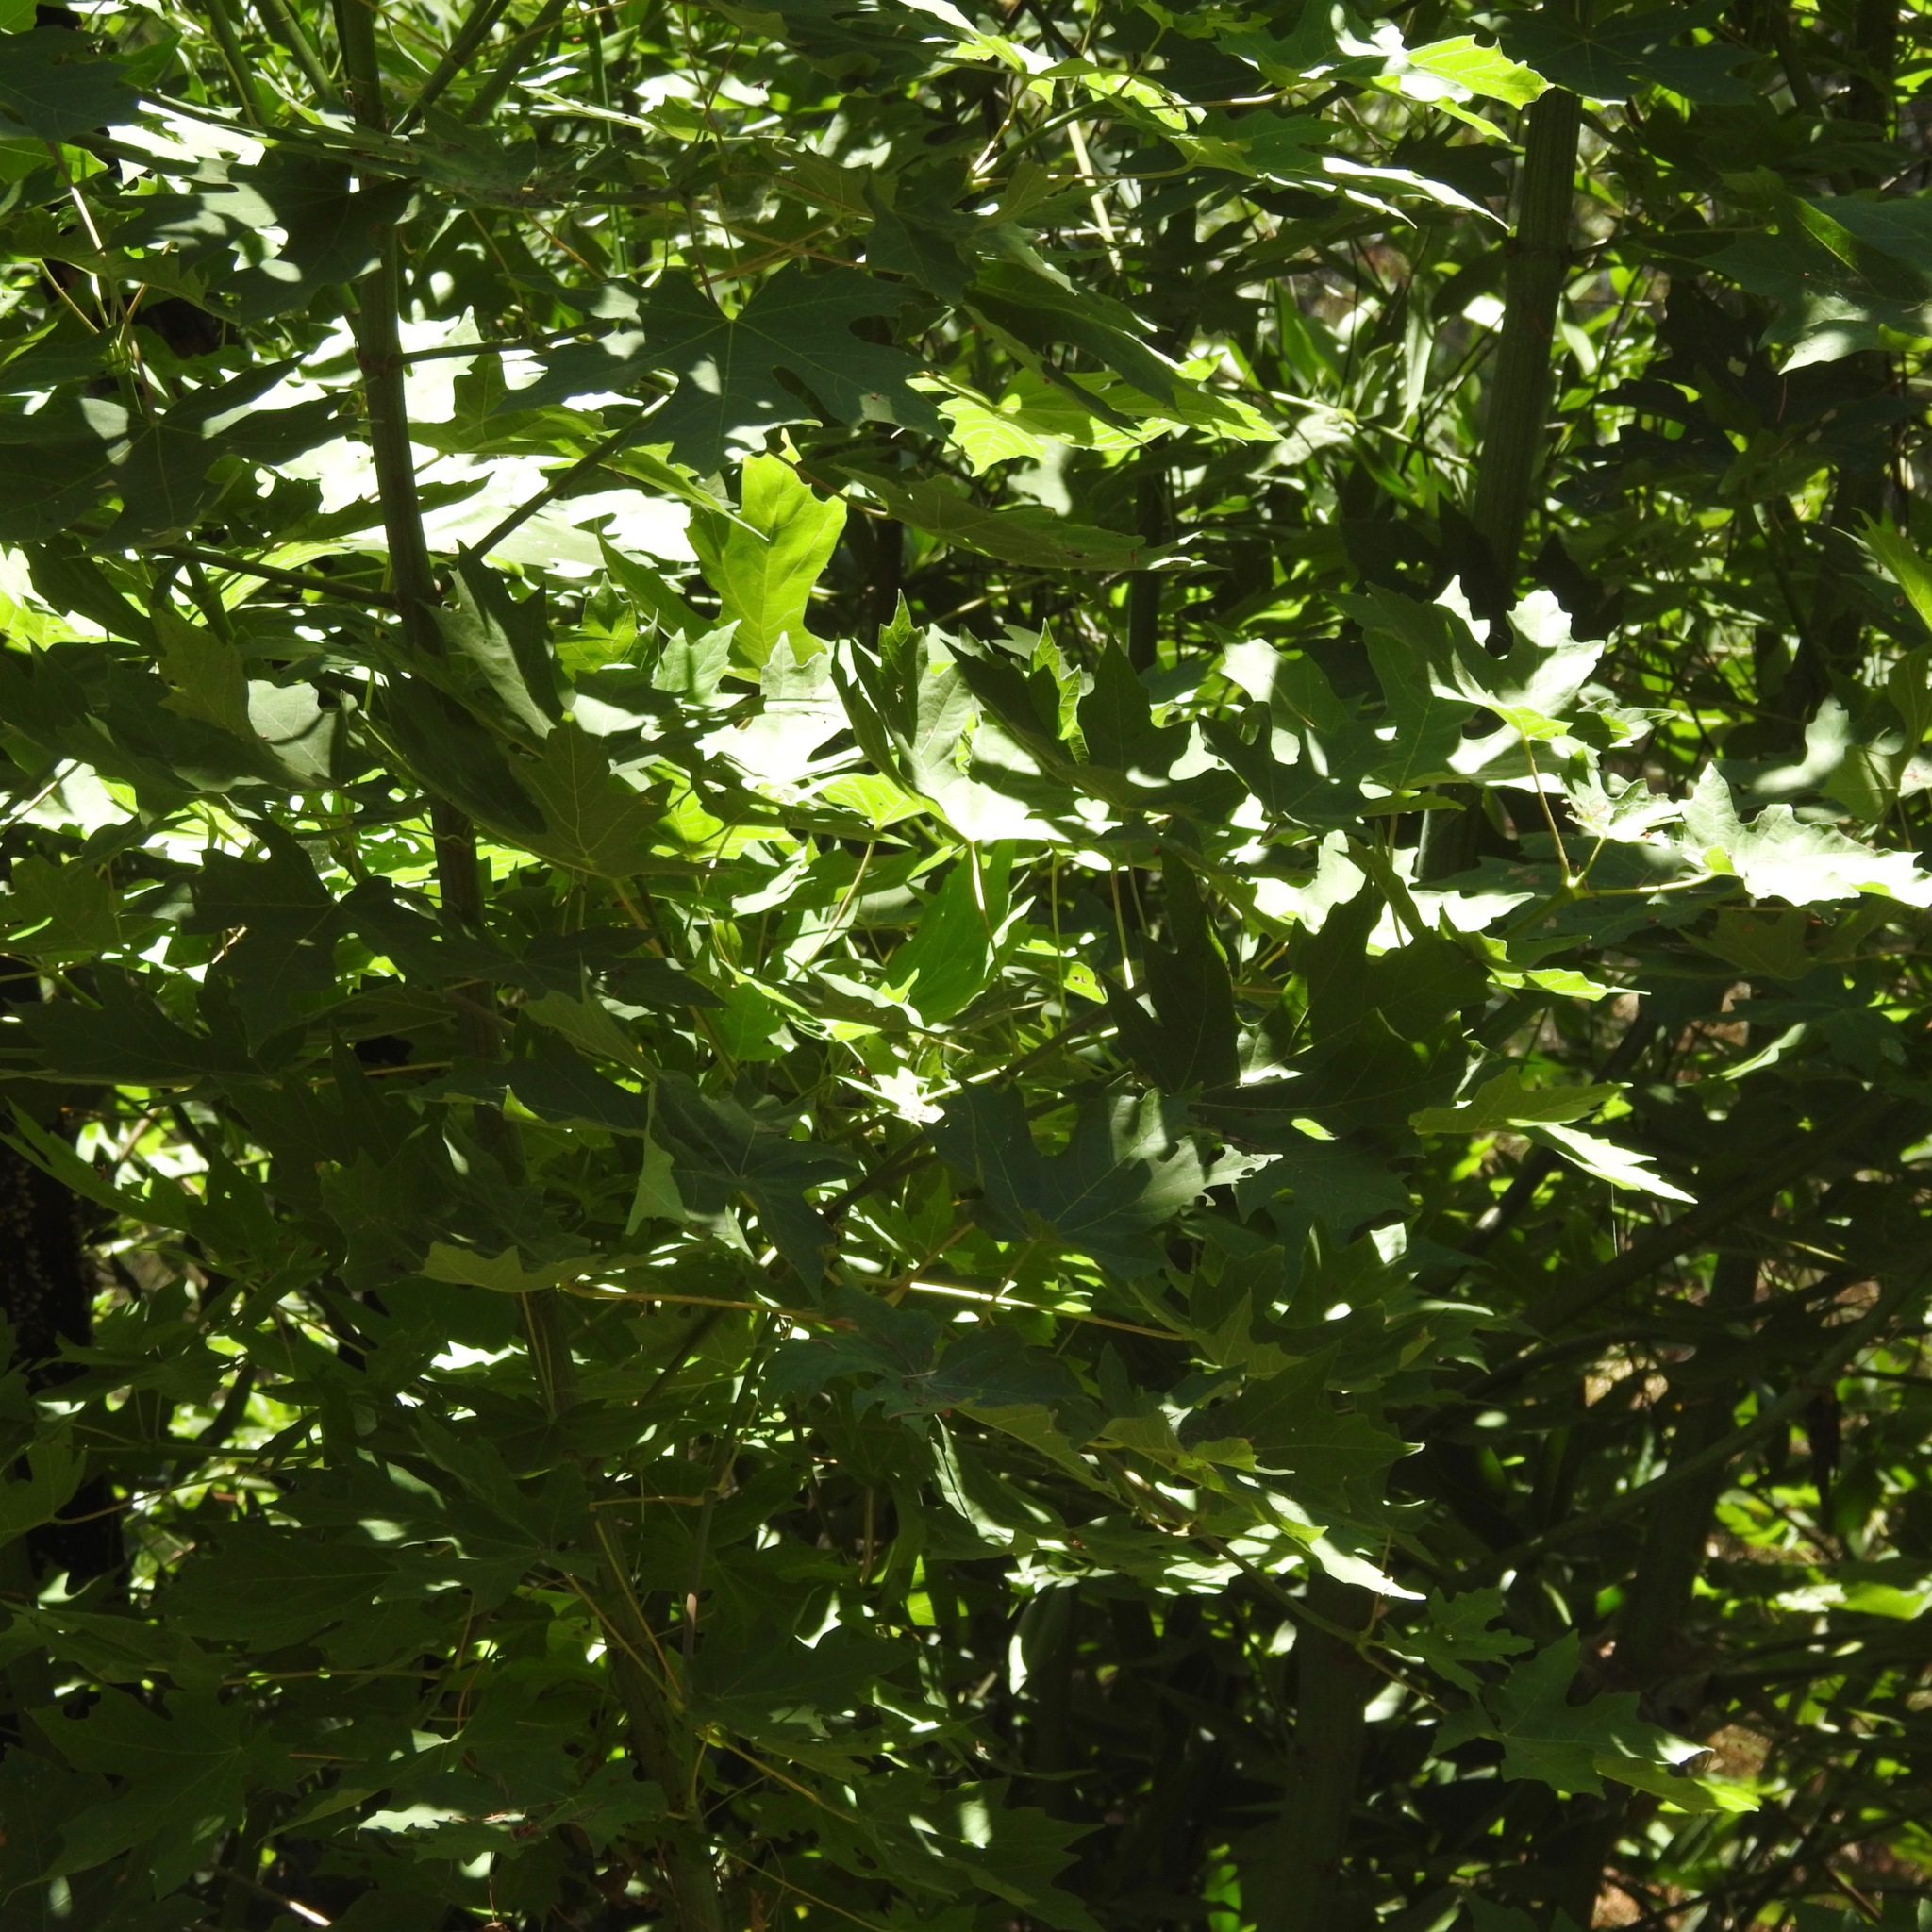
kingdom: Plantae
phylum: Tracheophyta
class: Magnoliopsida
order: Sapindales
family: Sapindaceae
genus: Acer
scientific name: Acer macrophyllum
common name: Oregon maple
